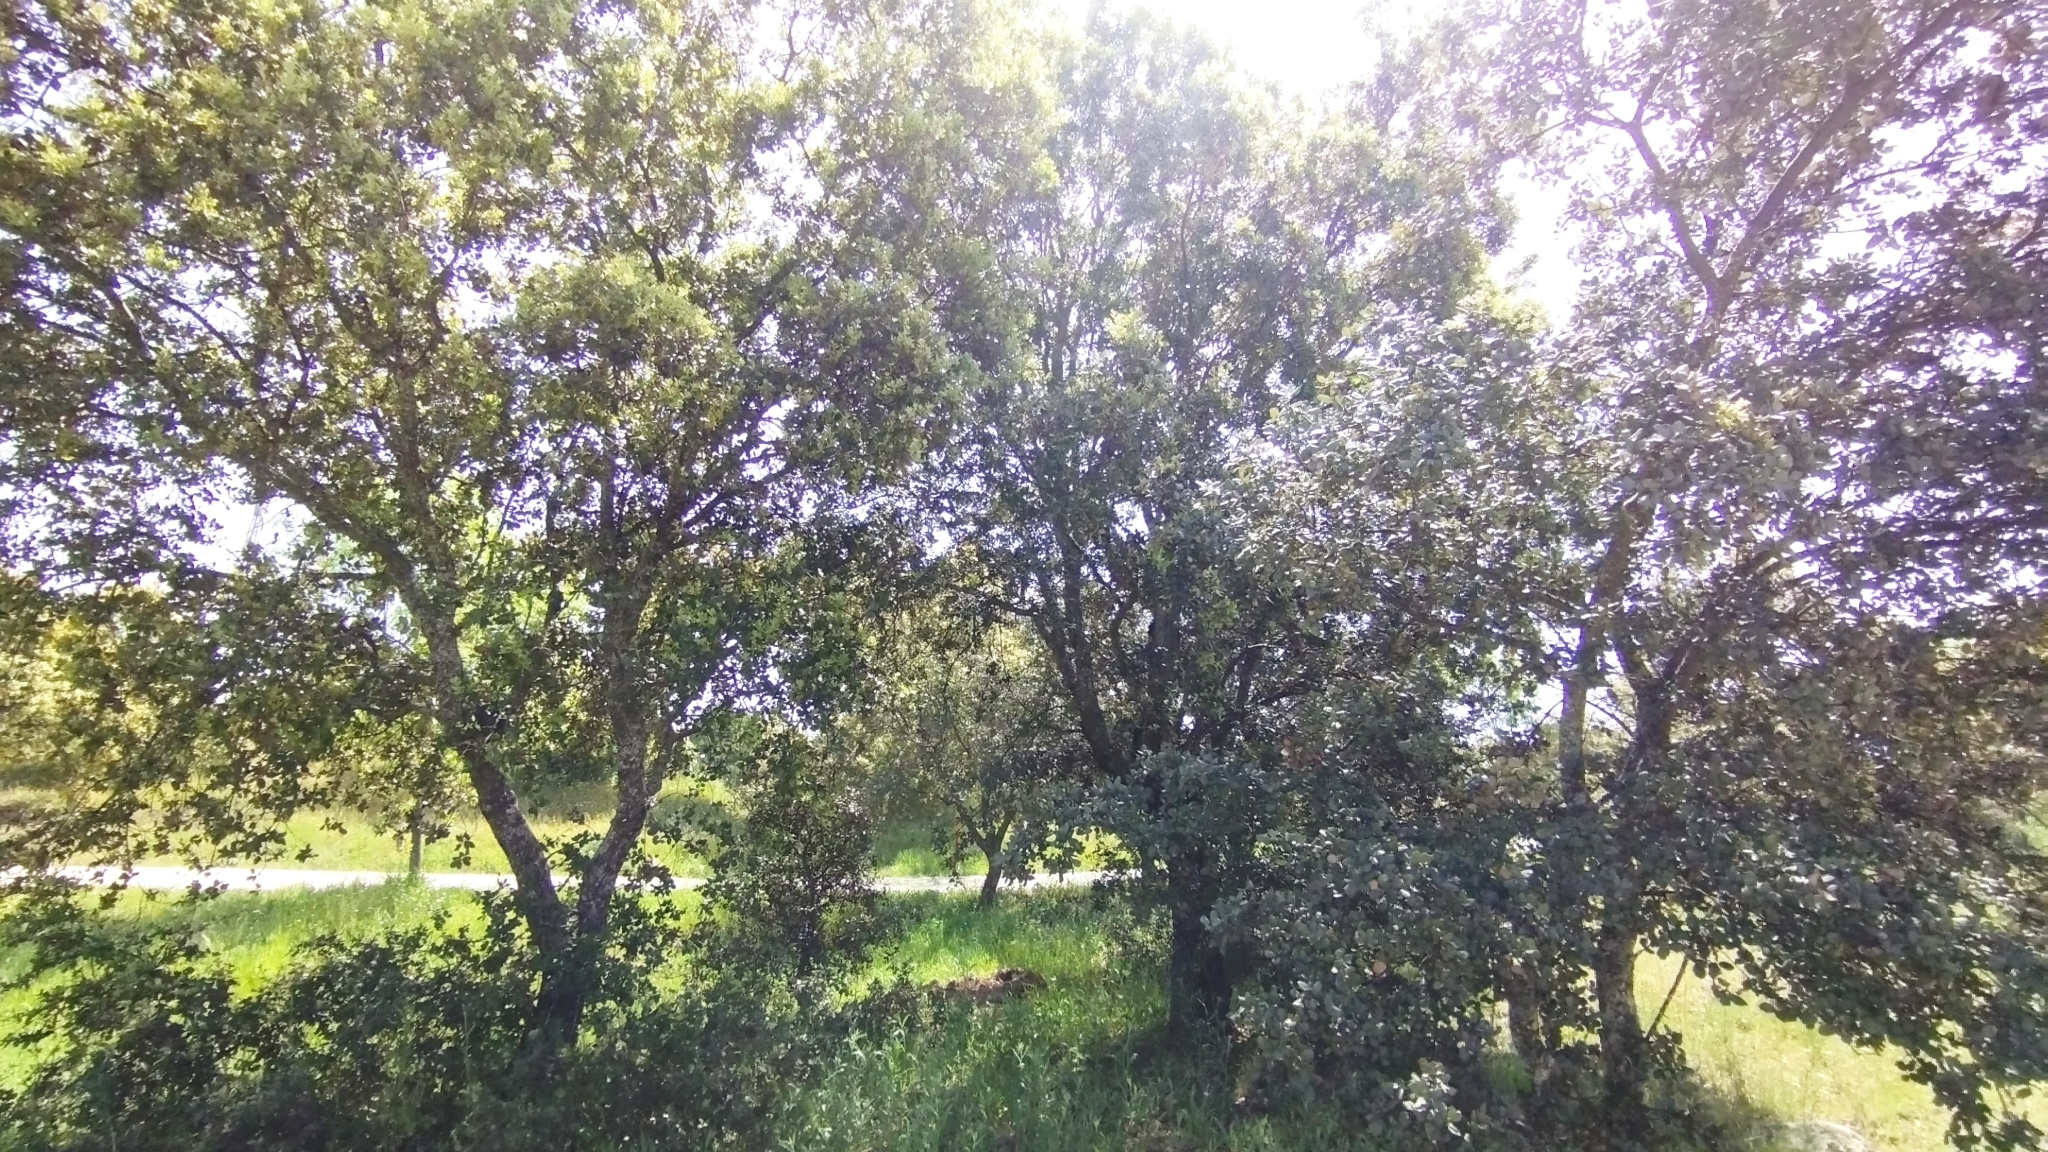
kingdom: Plantae
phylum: Tracheophyta
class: Magnoliopsida
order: Fagales
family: Fagaceae
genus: Quercus
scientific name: Quercus rotundifolia
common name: Holm oak
